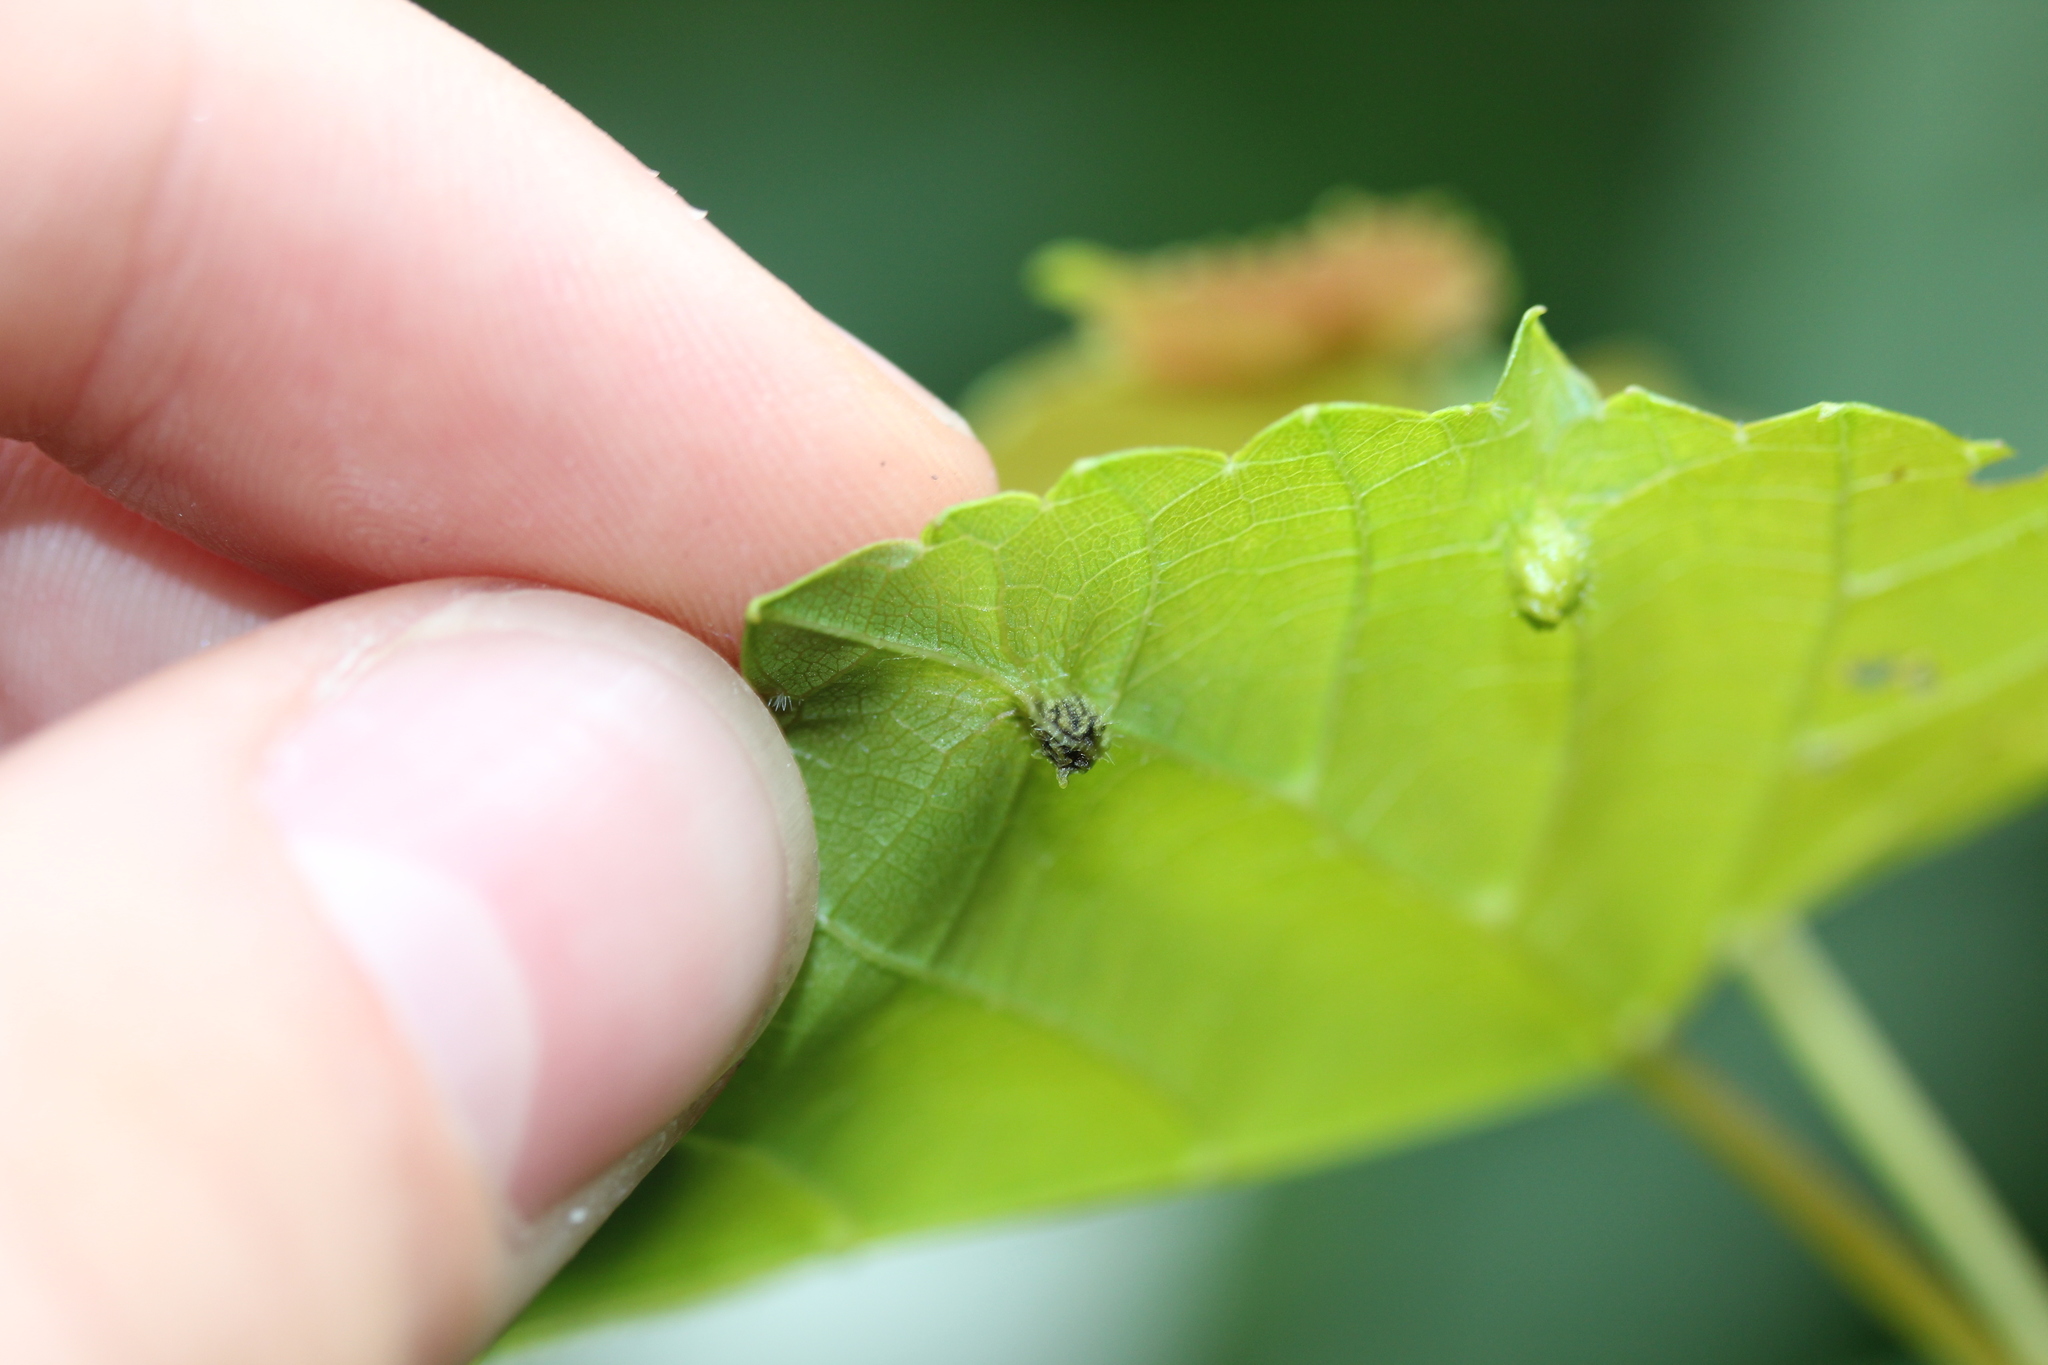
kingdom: Animalia
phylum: Arthropoda
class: Insecta
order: Hemiptera
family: Phylloxeridae
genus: Daktulosphaira
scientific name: Daktulosphaira vitifoliae
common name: Grape phylloxera
